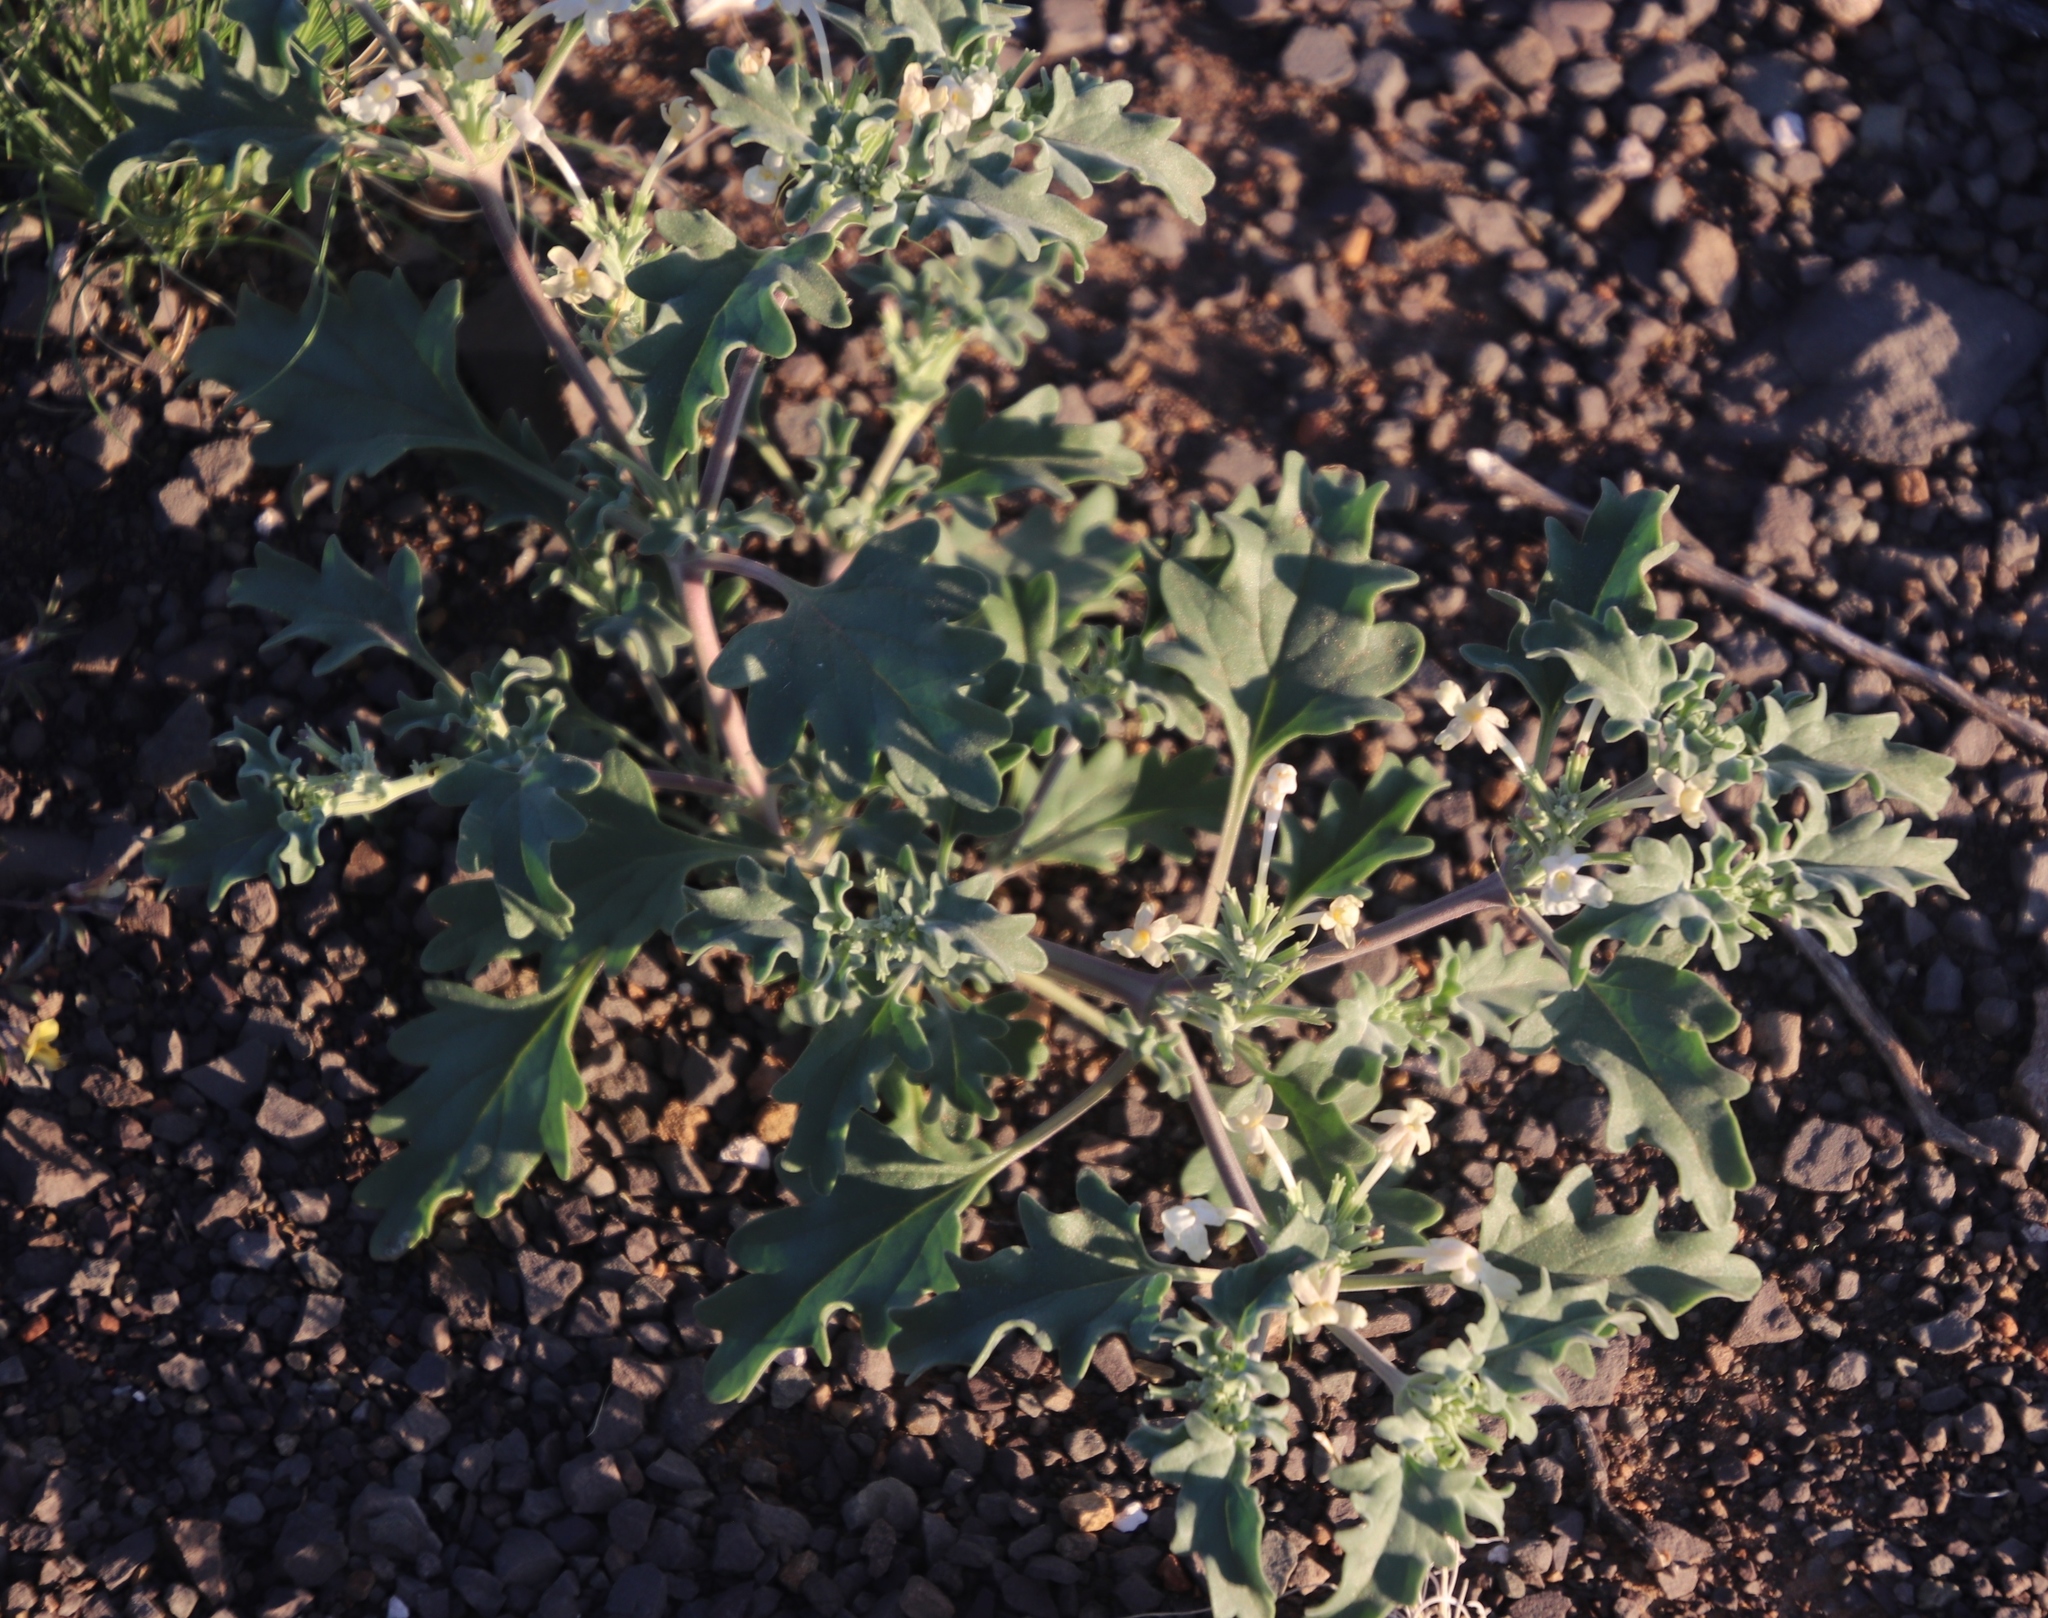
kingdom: Plantae
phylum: Tracheophyta
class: Magnoliopsida
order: Lamiales
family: Verbenaceae
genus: Chascanum
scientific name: Chascanum pumilum
